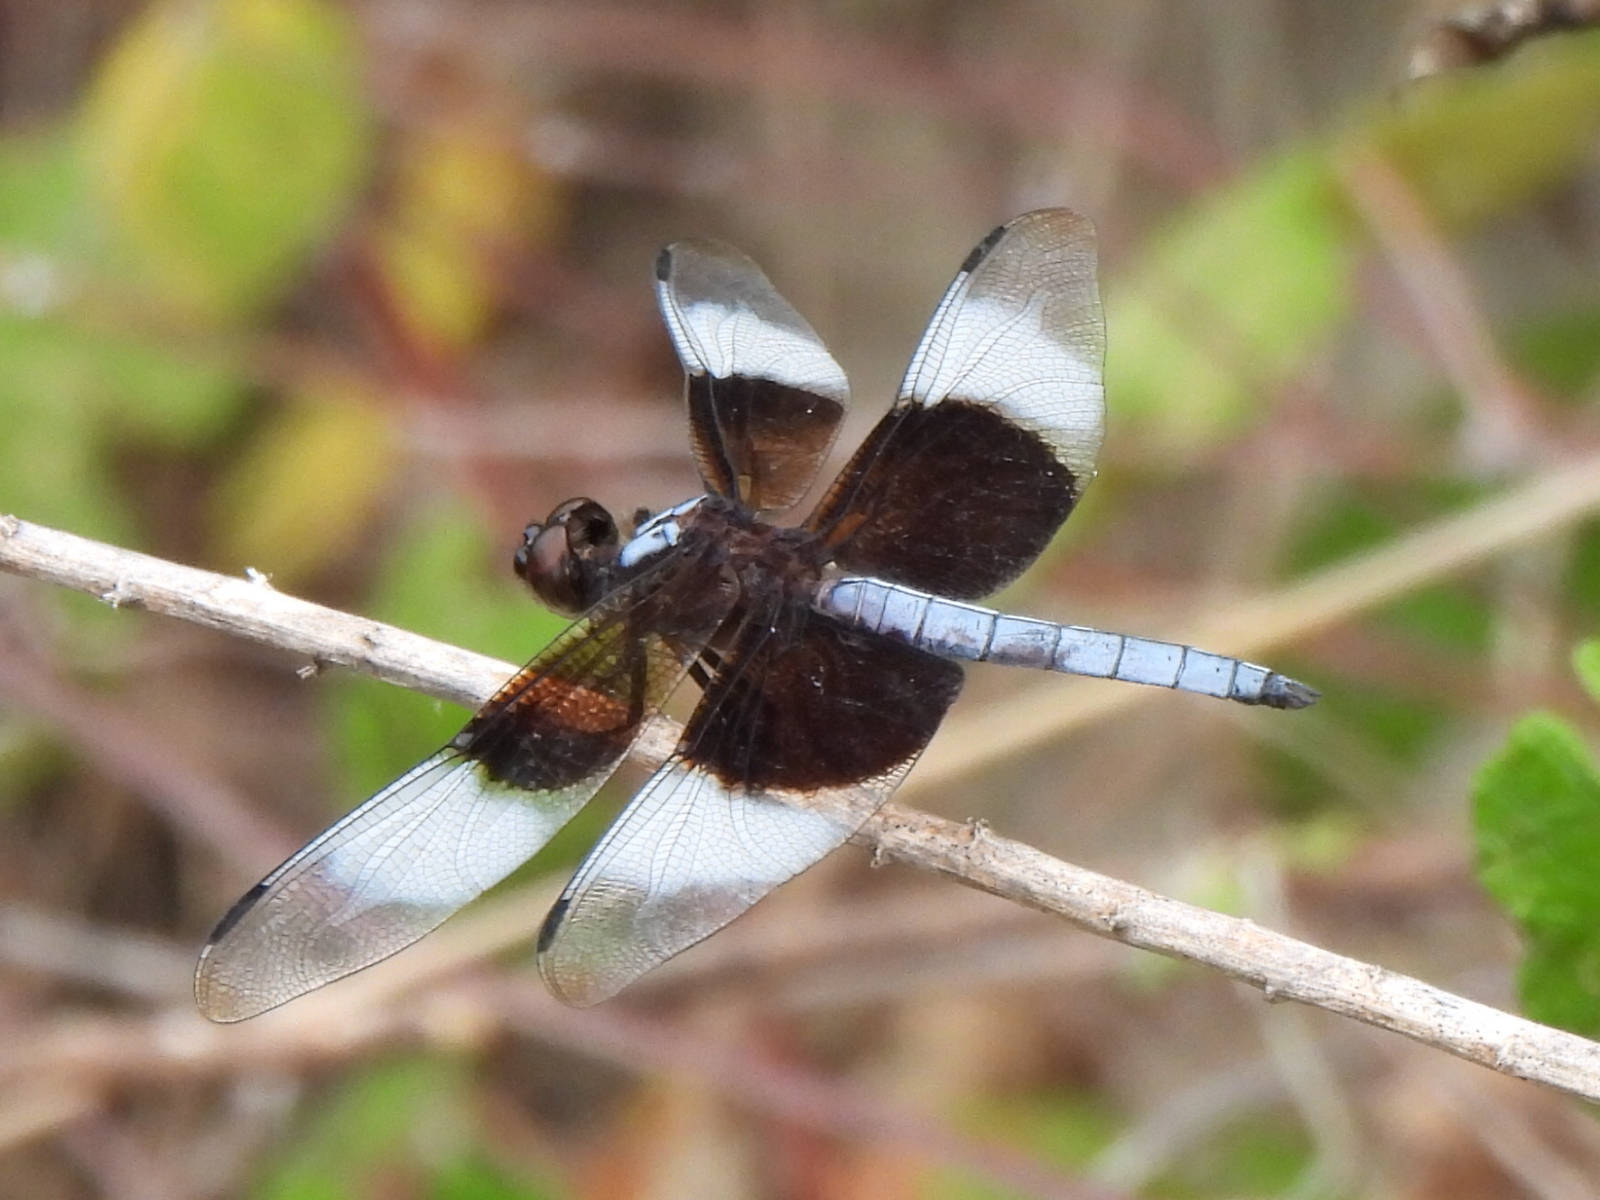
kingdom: Animalia
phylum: Arthropoda
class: Insecta
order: Odonata
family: Libellulidae
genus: Libellula
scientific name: Libellula luctuosa
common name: Widow skimmer
